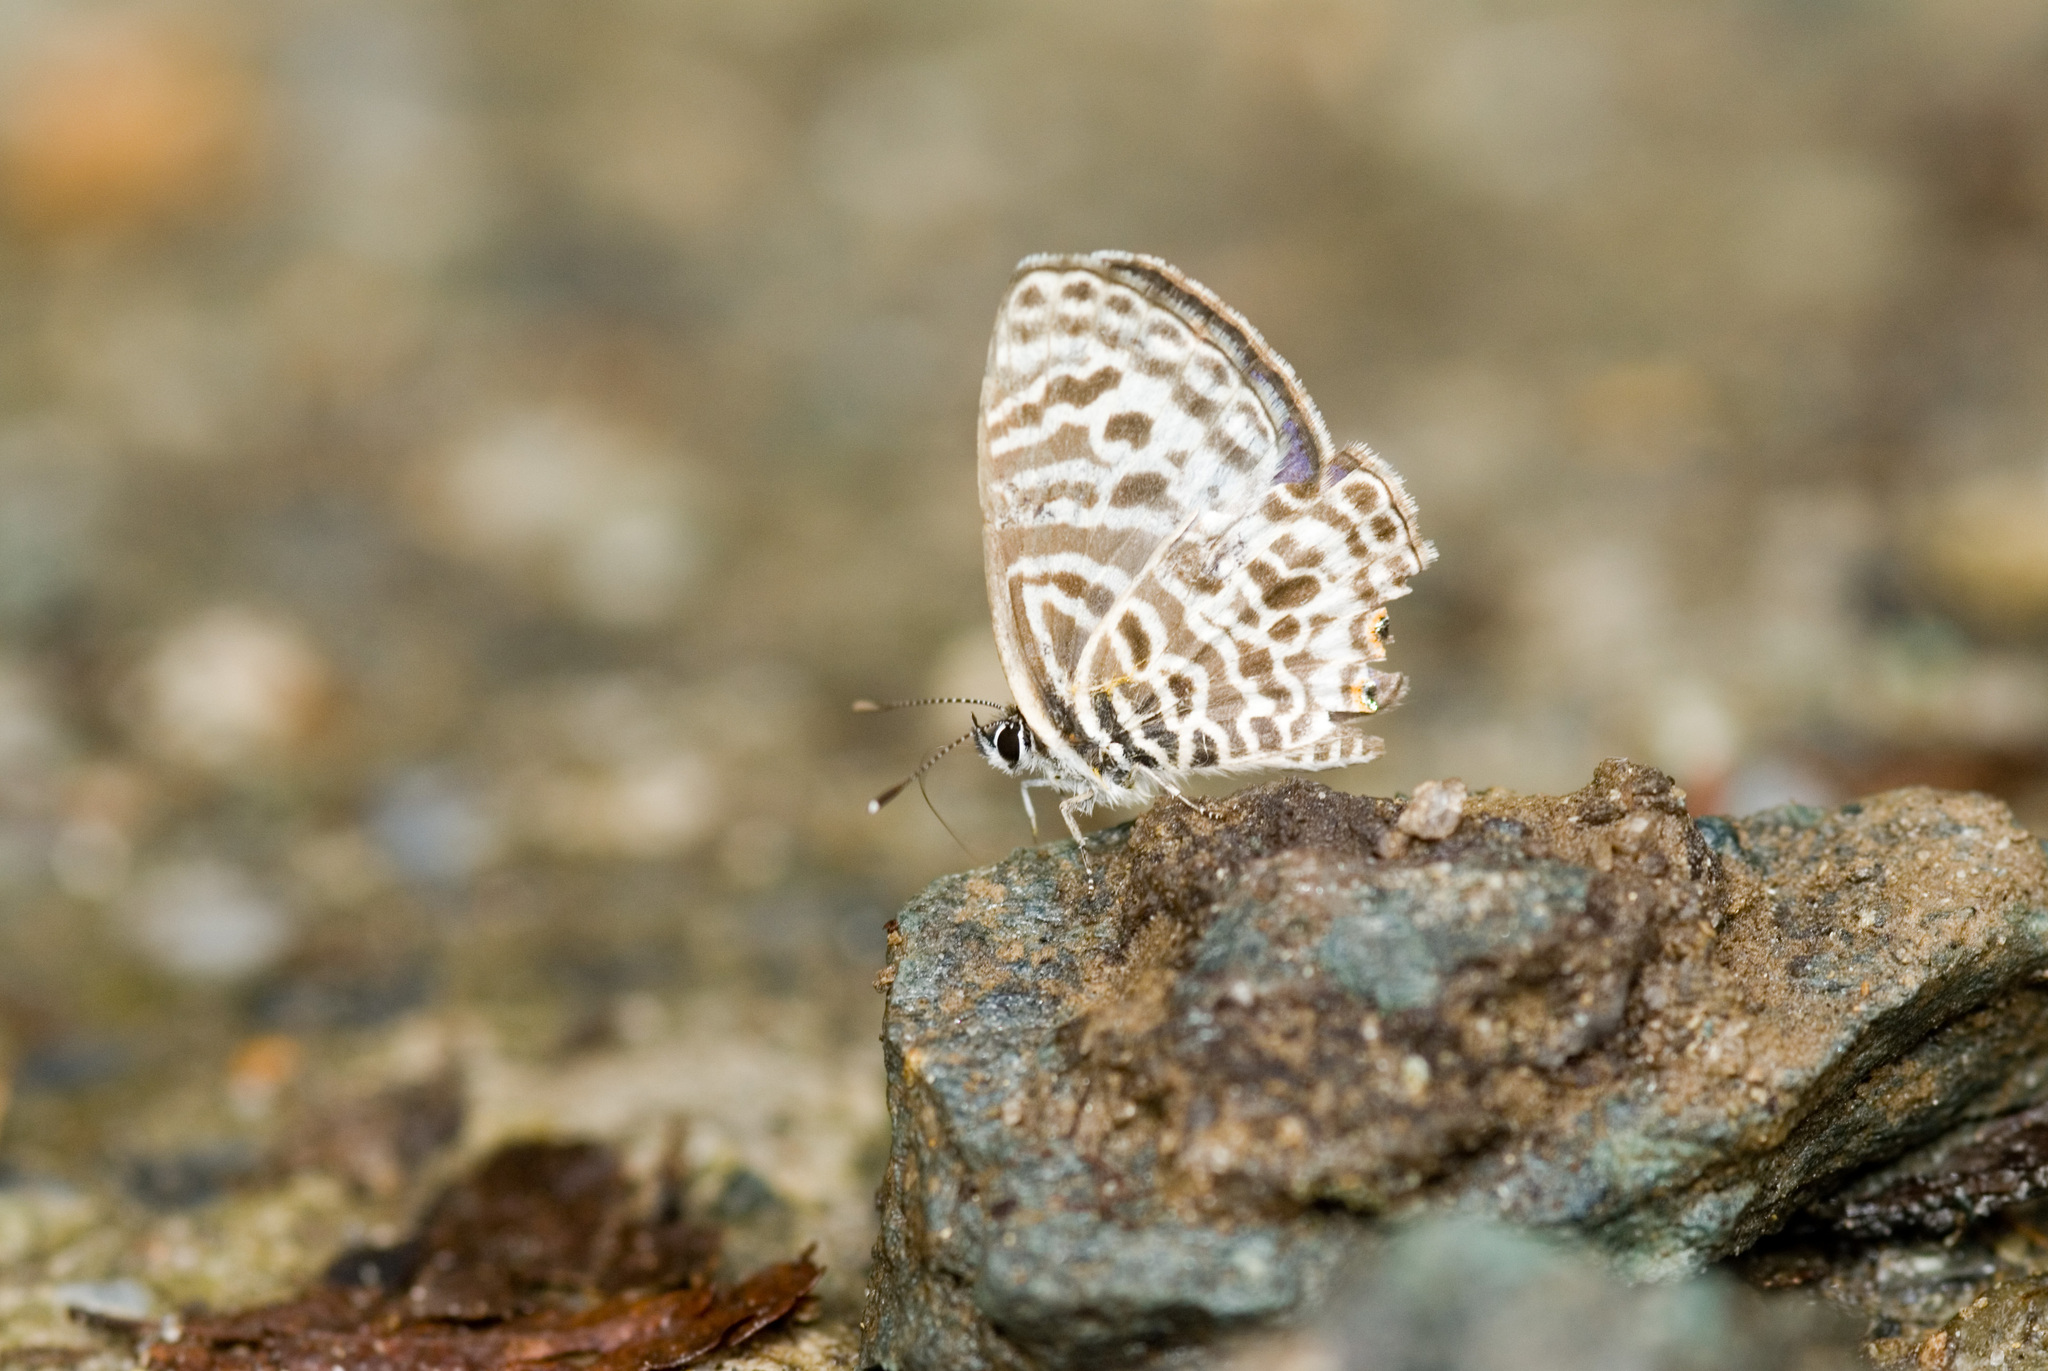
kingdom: Animalia
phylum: Arthropoda
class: Insecta
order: Lepidoptera
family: Lycaenidae
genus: Leptotes
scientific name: Leptotes plinius
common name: Zebra blue
